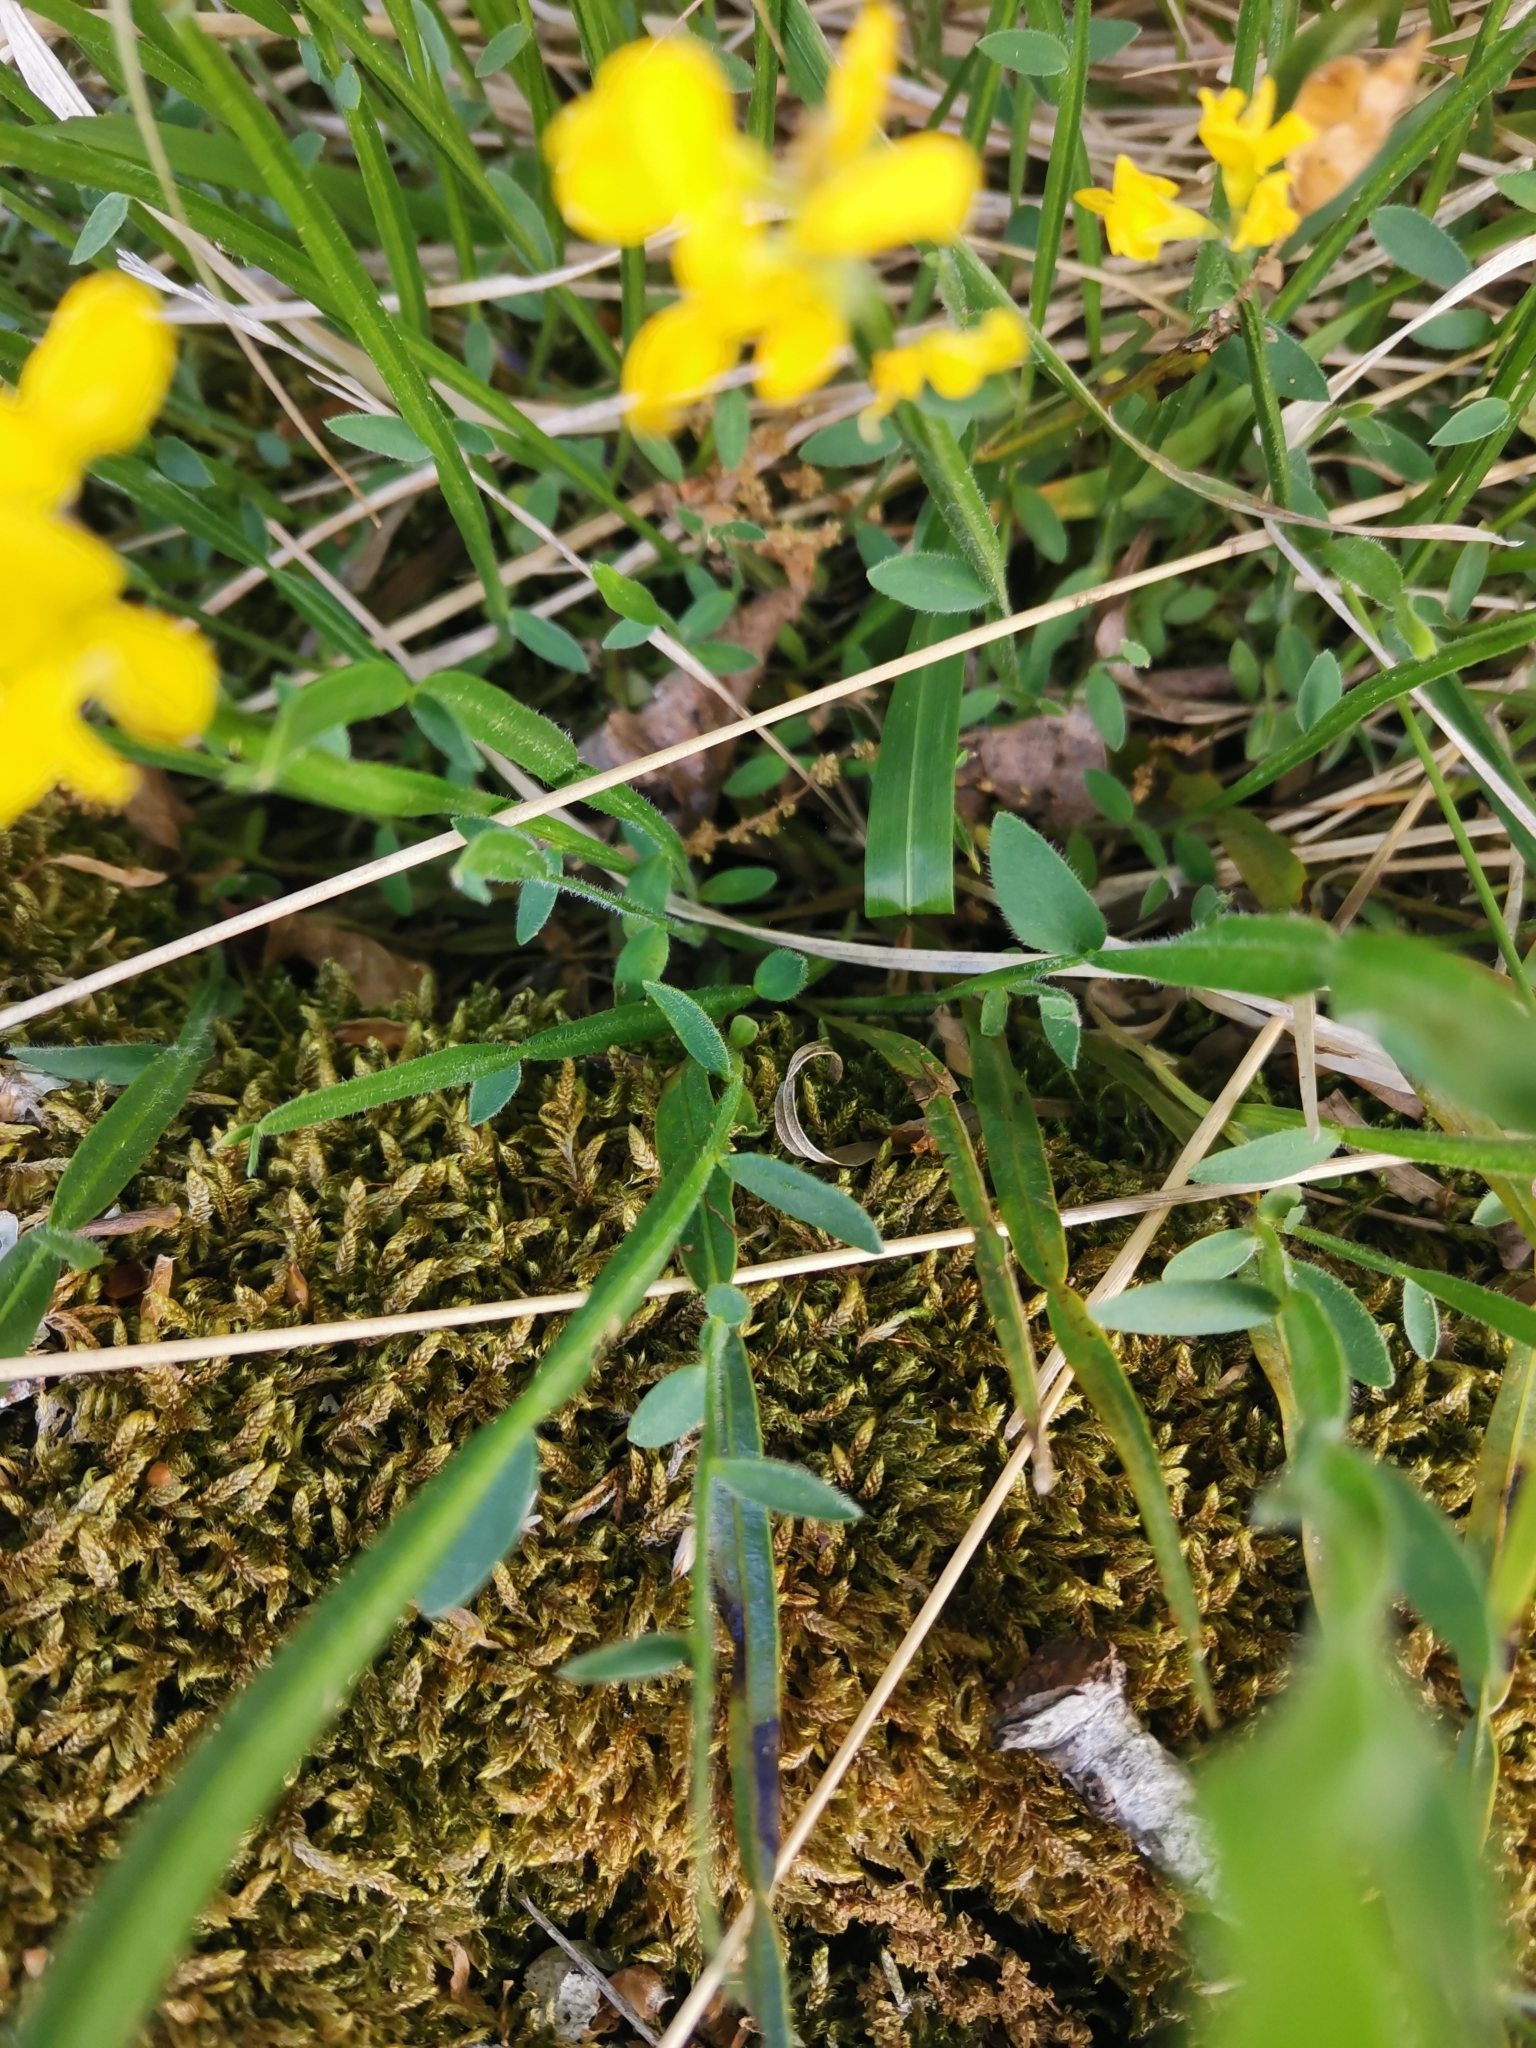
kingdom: Plantae
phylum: Tracheophyta
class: Magnoliopsida
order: Fabales
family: Fabaceae
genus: Genista
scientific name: Genista sagittalis
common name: Winged greenweed
